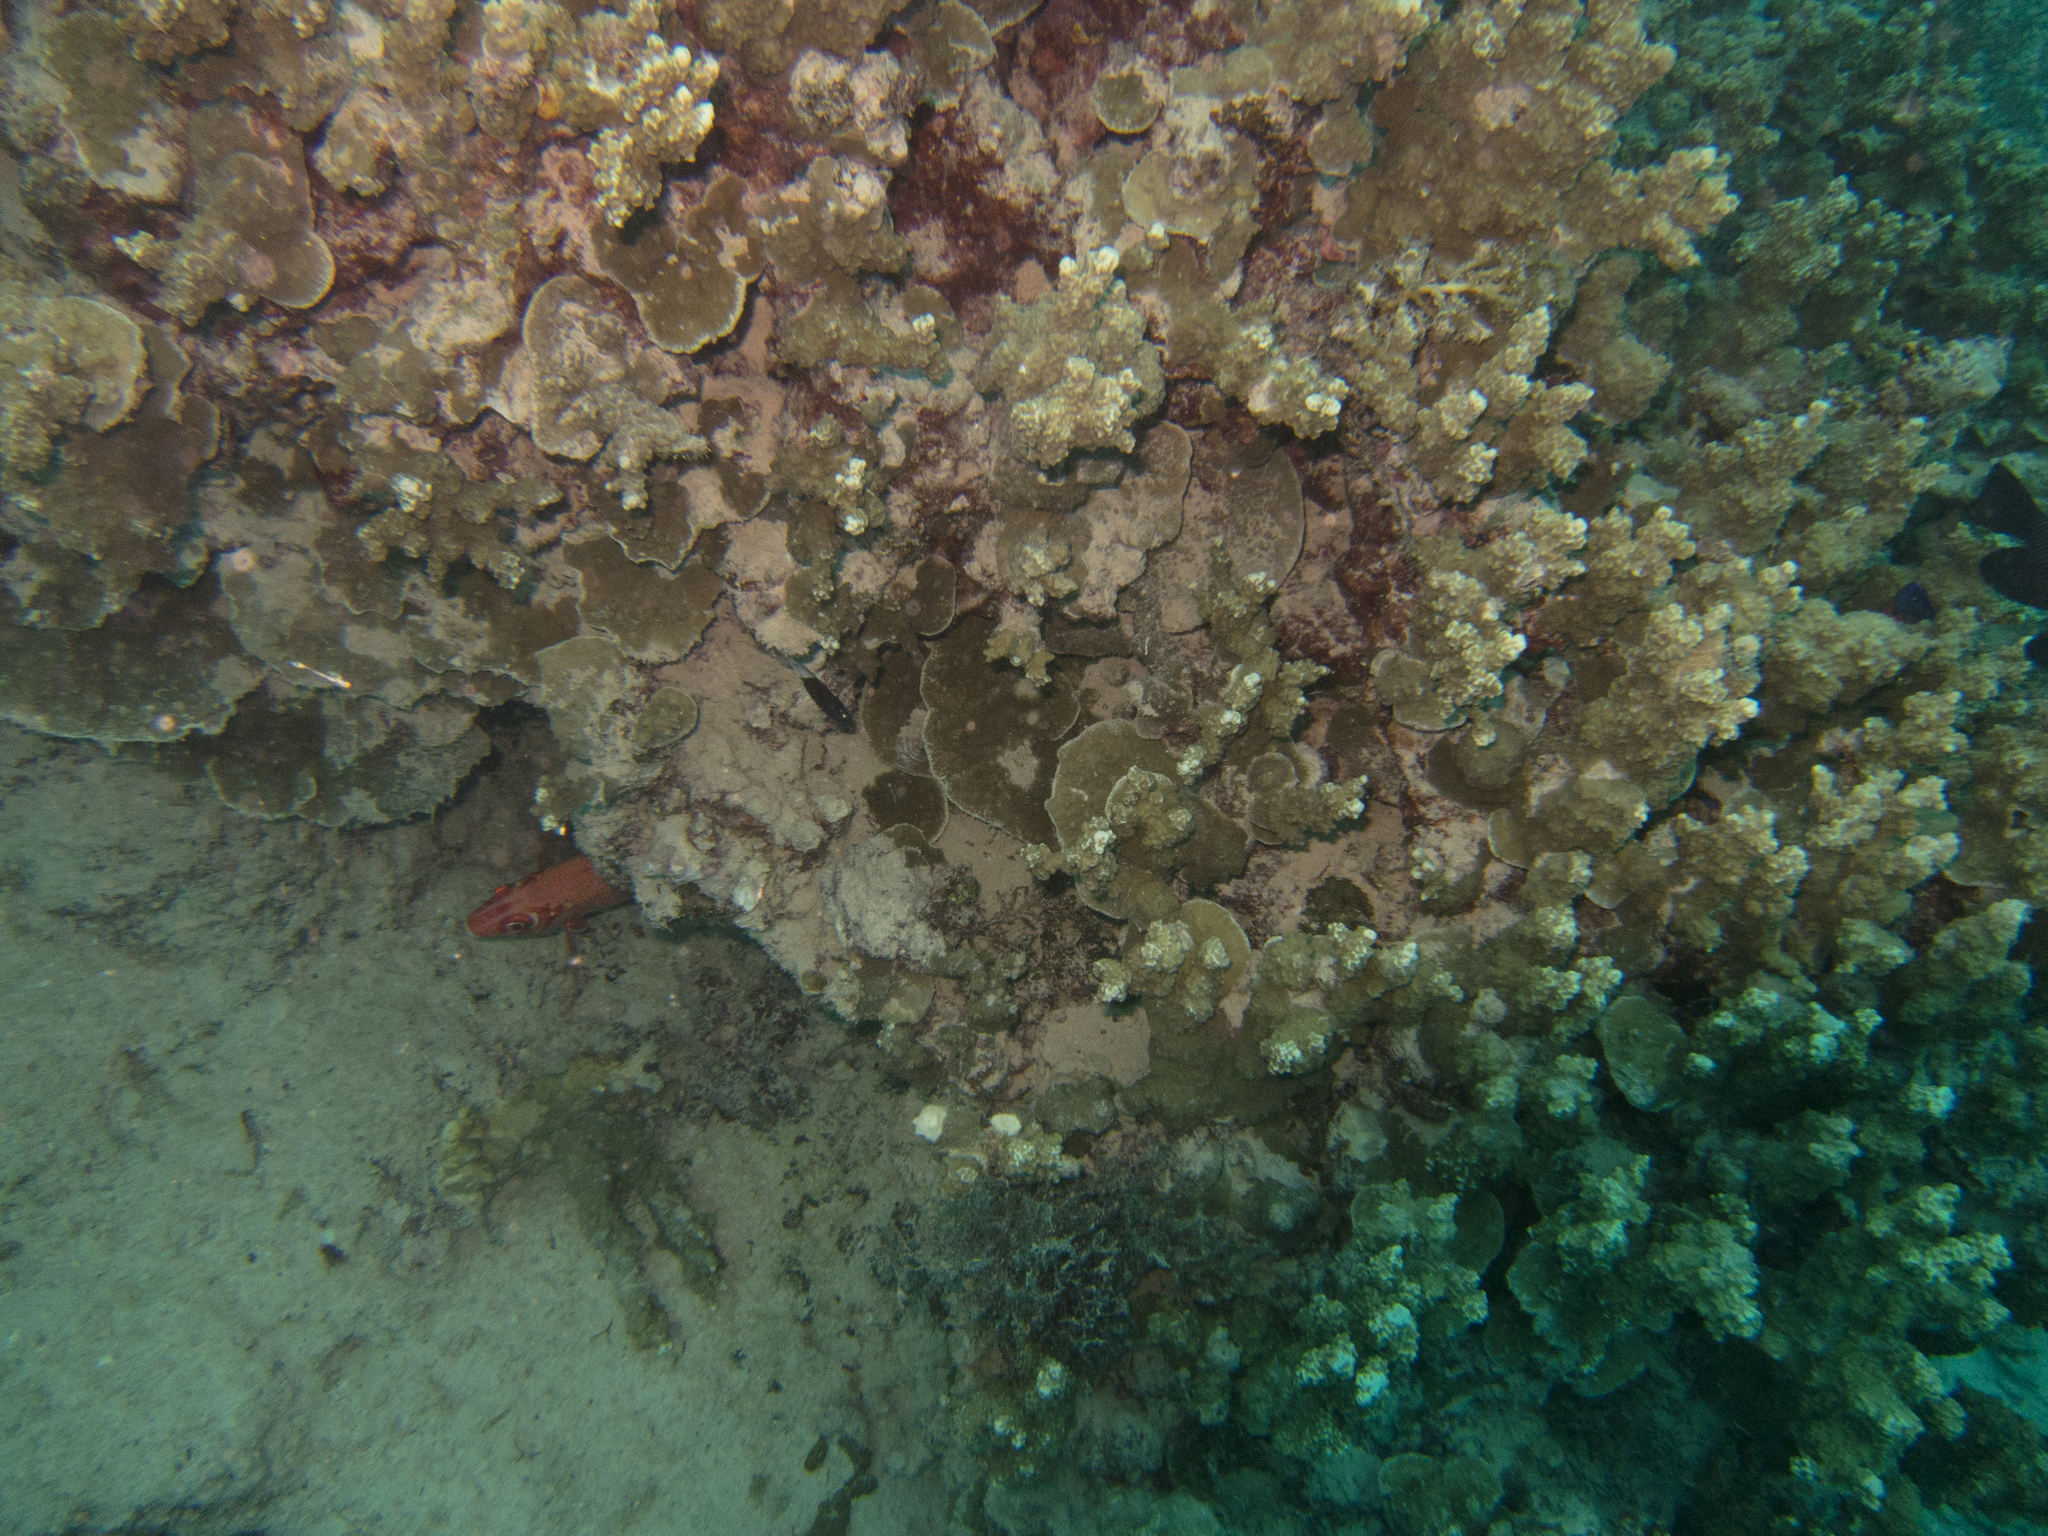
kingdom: Animalia
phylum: Chordata
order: Beryciformes
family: Holocentridae
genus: Sargocentron
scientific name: Sargocentron spiniferum
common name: Giant squirrelfish
